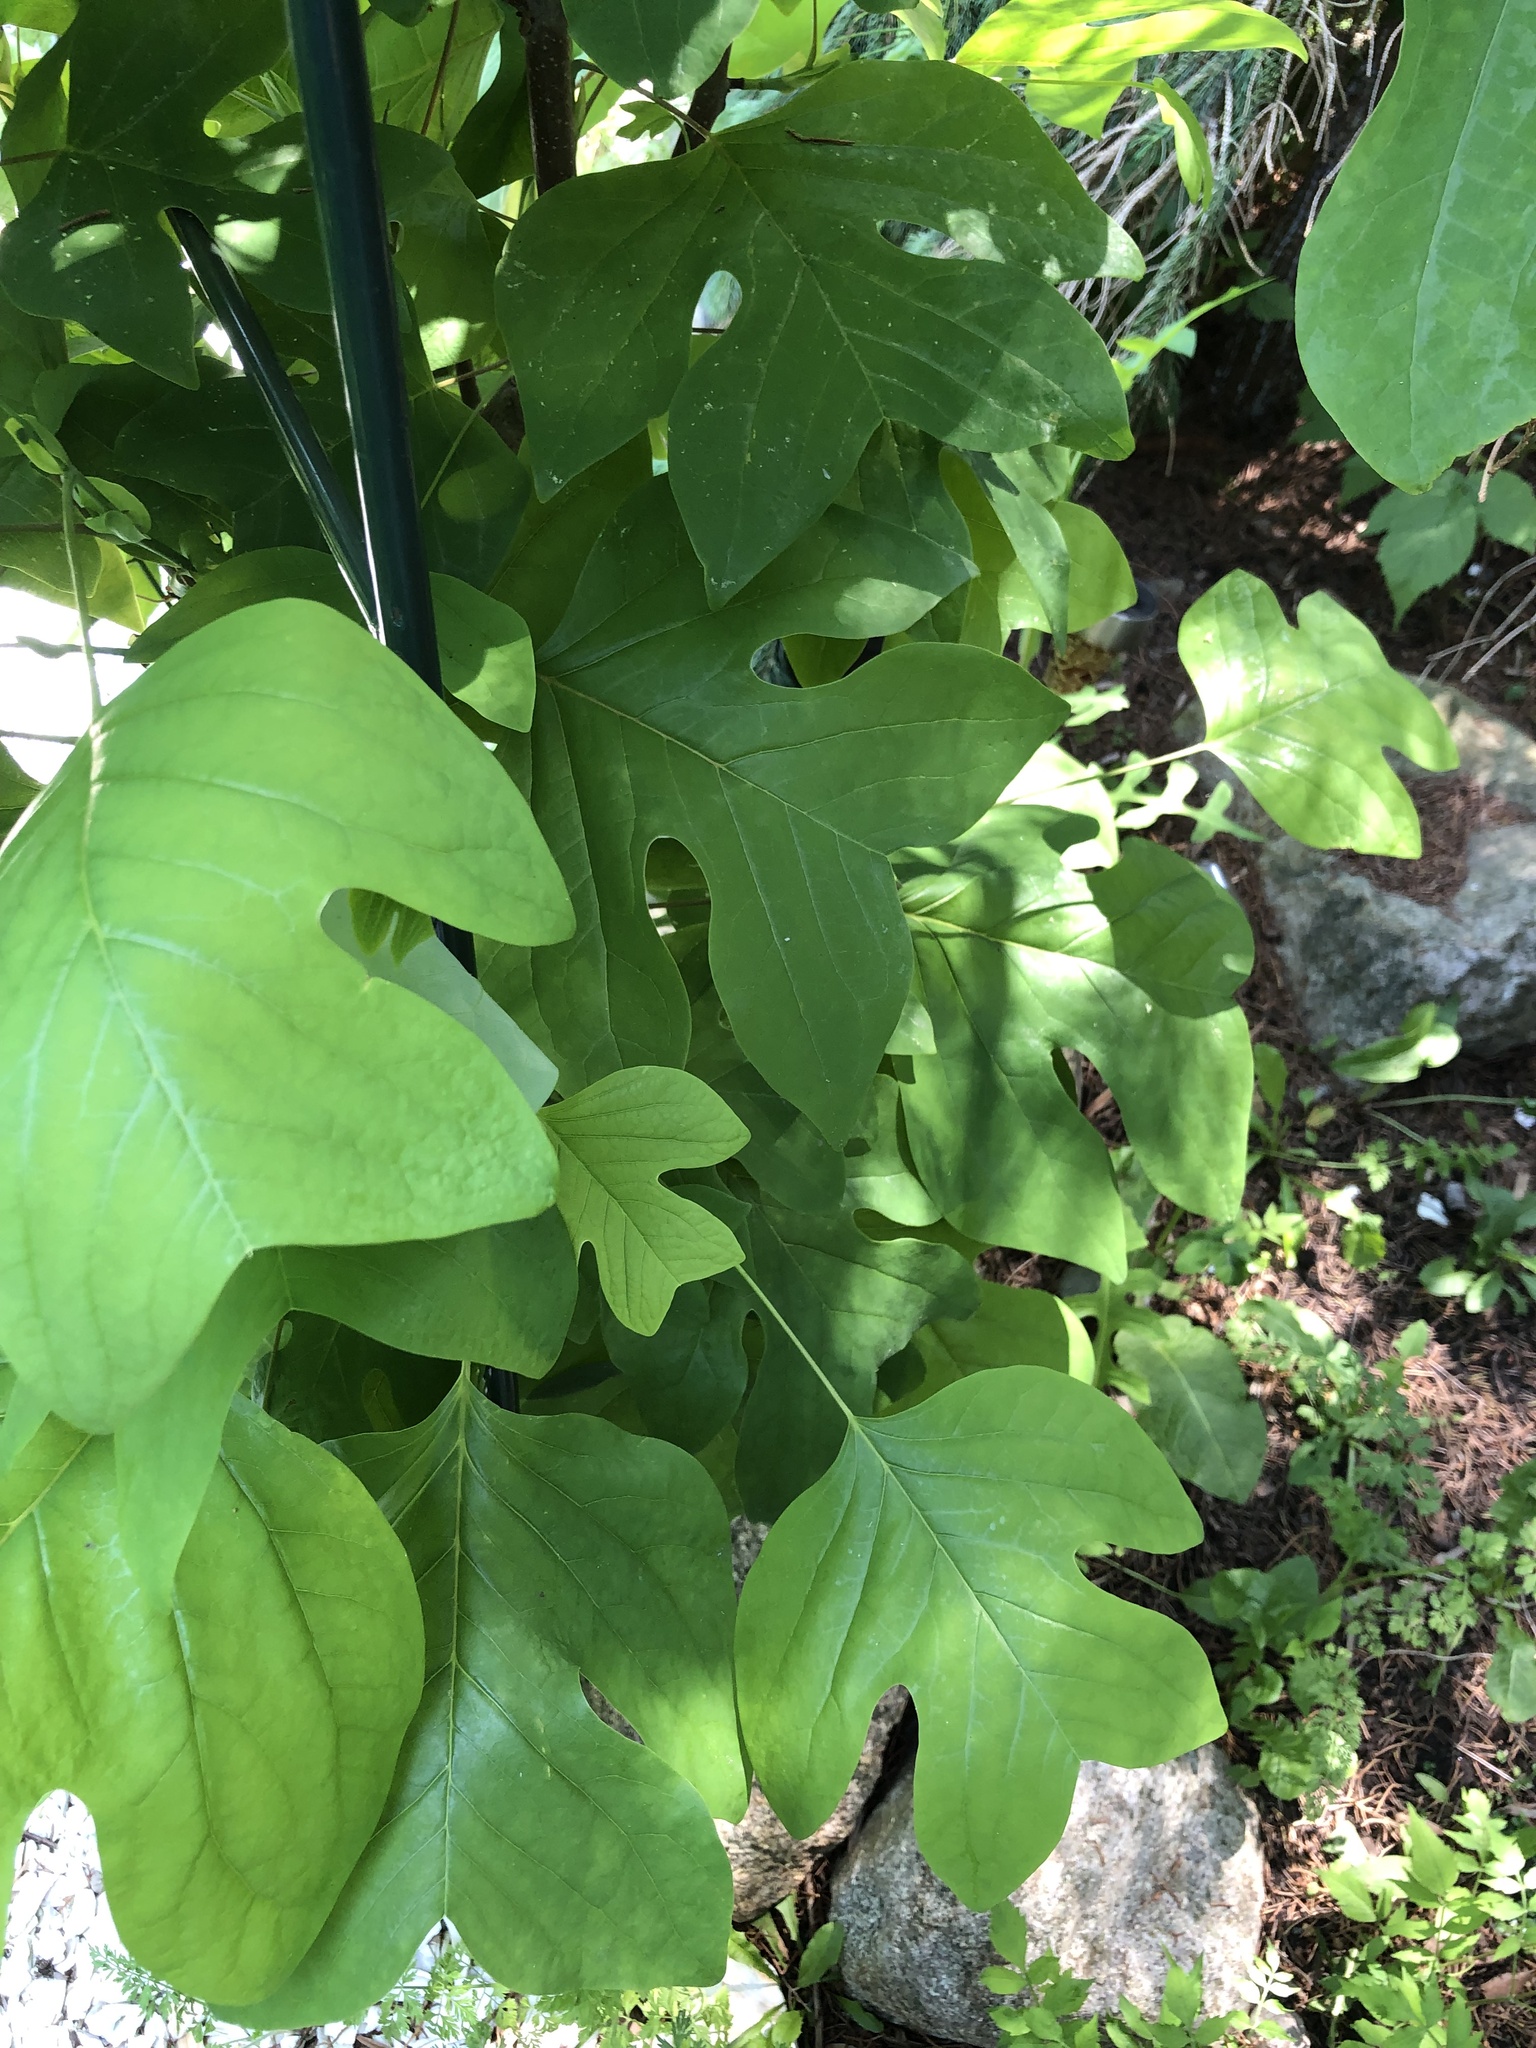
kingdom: Plantae
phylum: Tracheophyta
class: Magnoliopsida
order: Magnoliales
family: Magnoliaceae
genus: Liriodendron
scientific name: Liriodendron tulipifera
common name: Tulip tree
